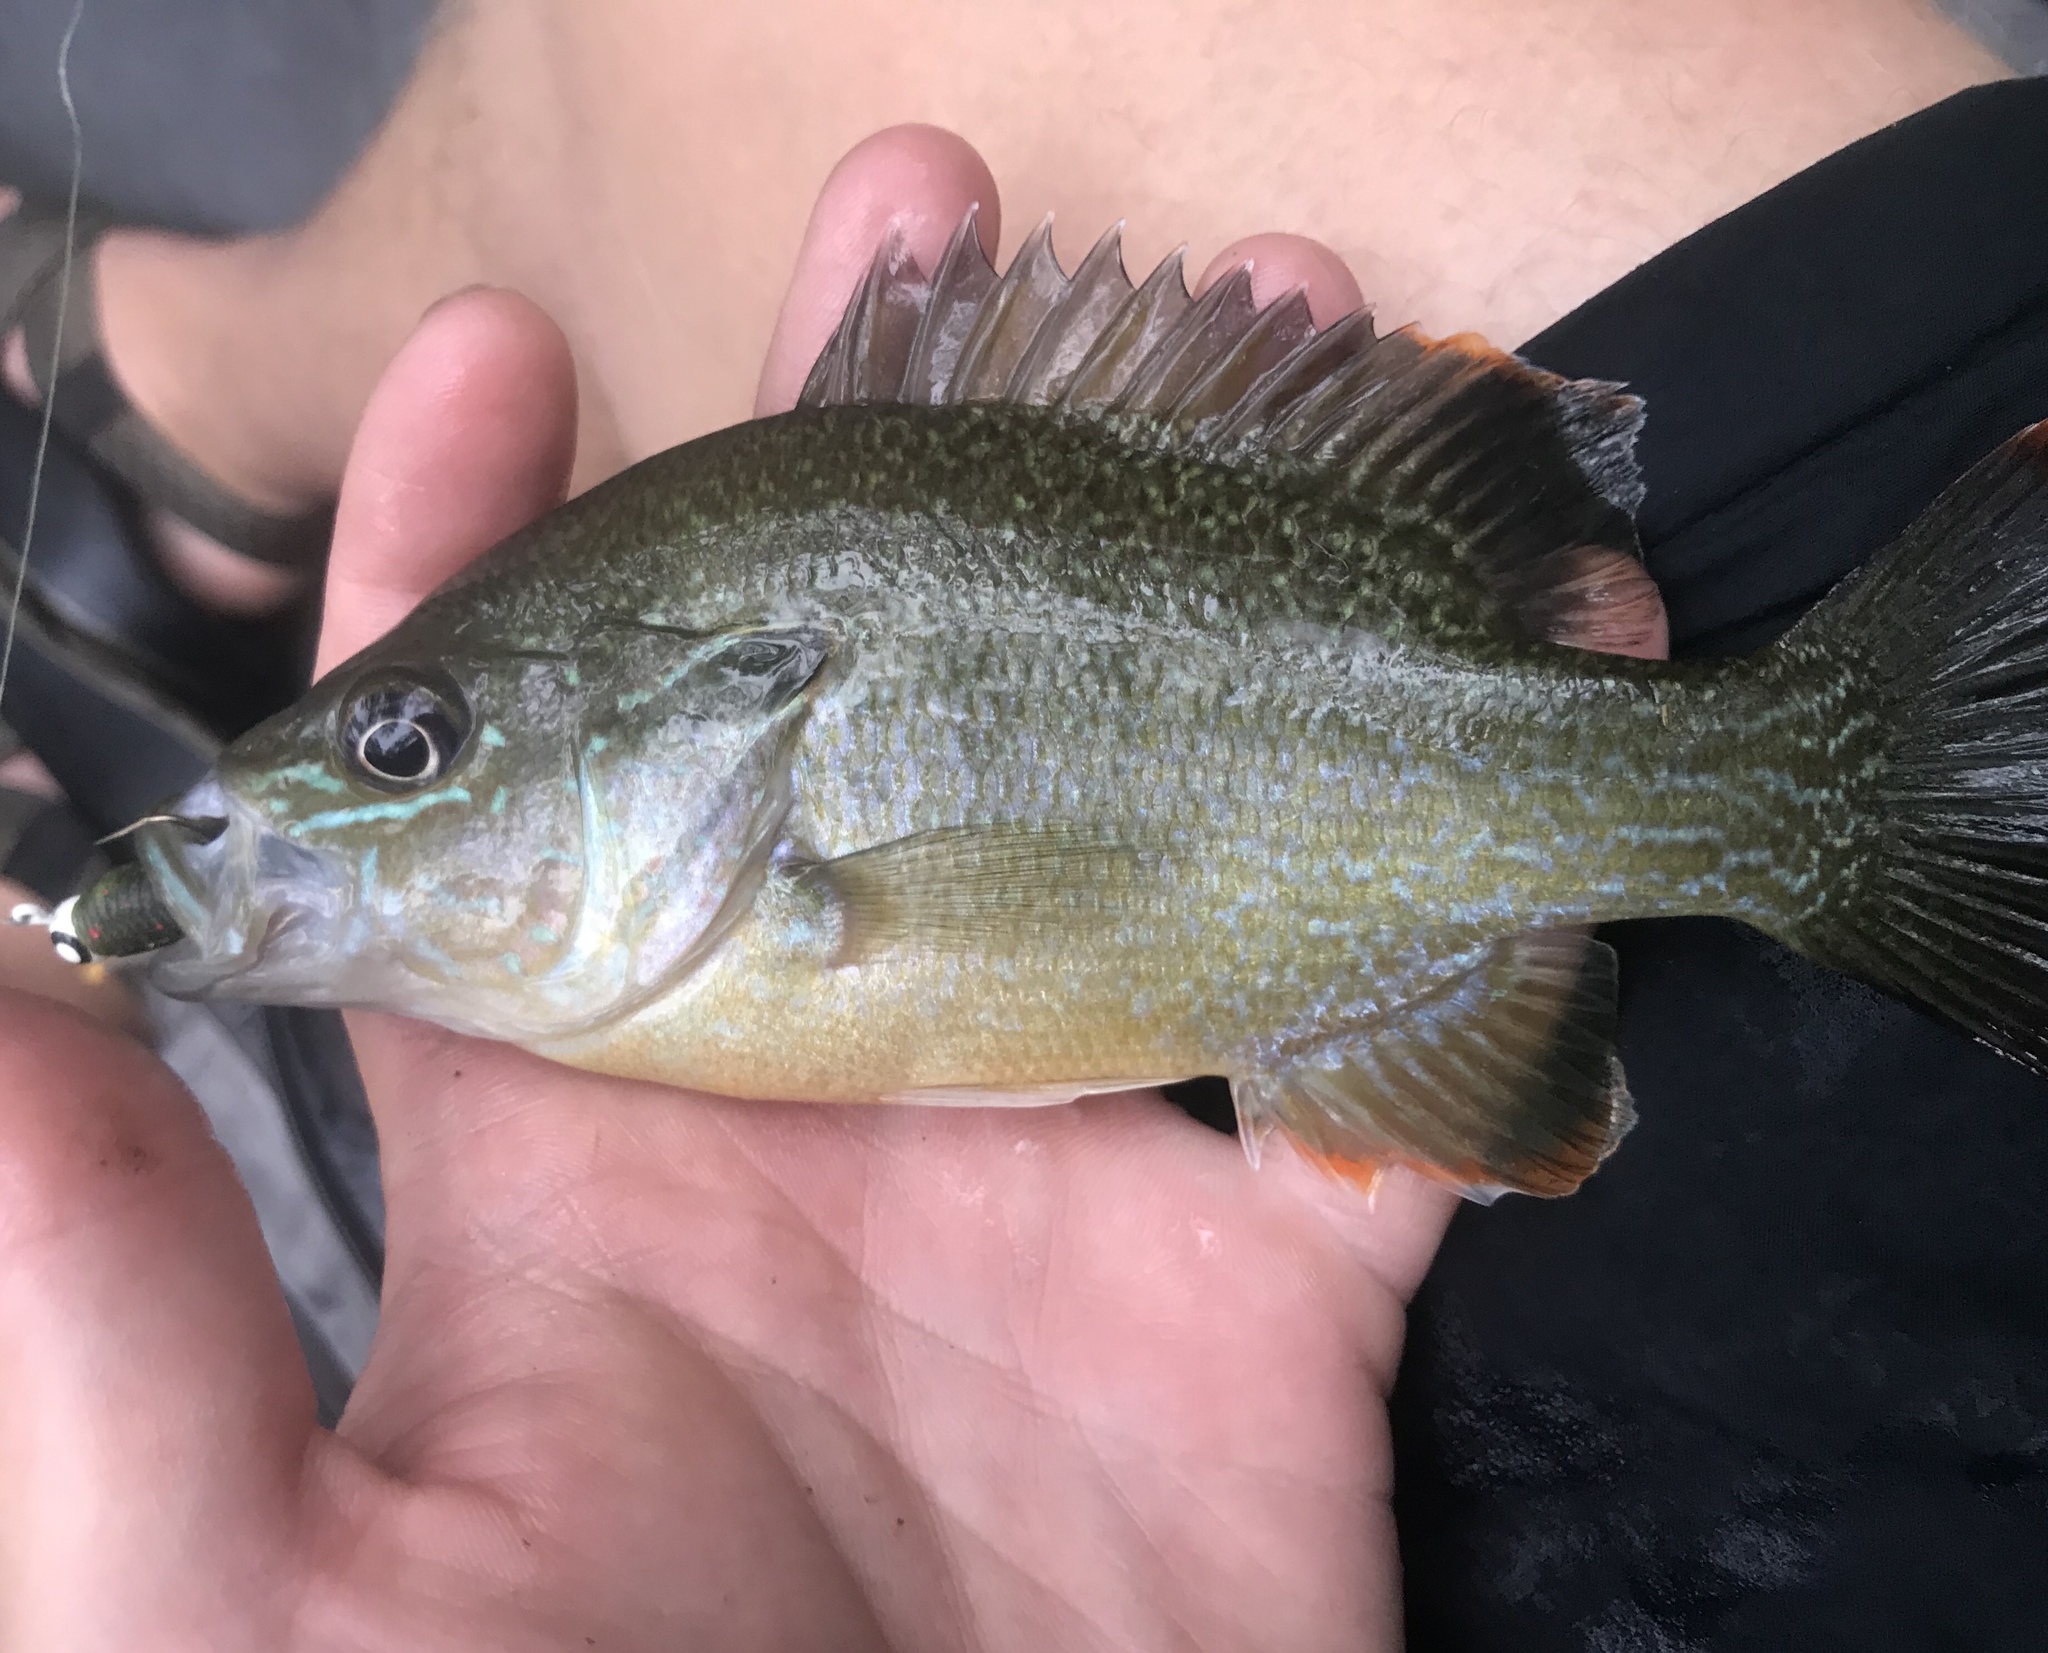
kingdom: Animalia
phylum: Chordata
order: Perciformes
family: Centrarchidae
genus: Lepomis
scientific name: Lepomis
